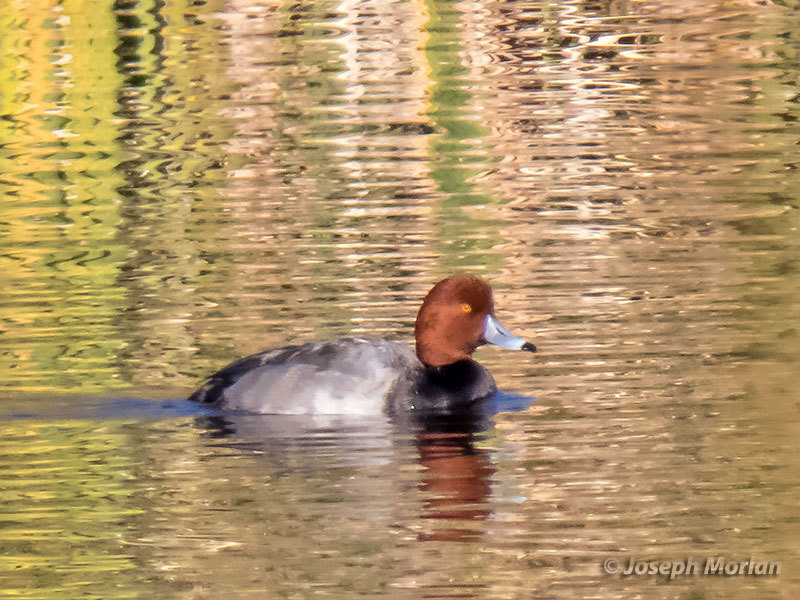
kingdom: Animalia
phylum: Chordata
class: Aves
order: Anseriformes
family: Anatidae
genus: Aythya
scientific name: Aythya americana
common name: Redhead
